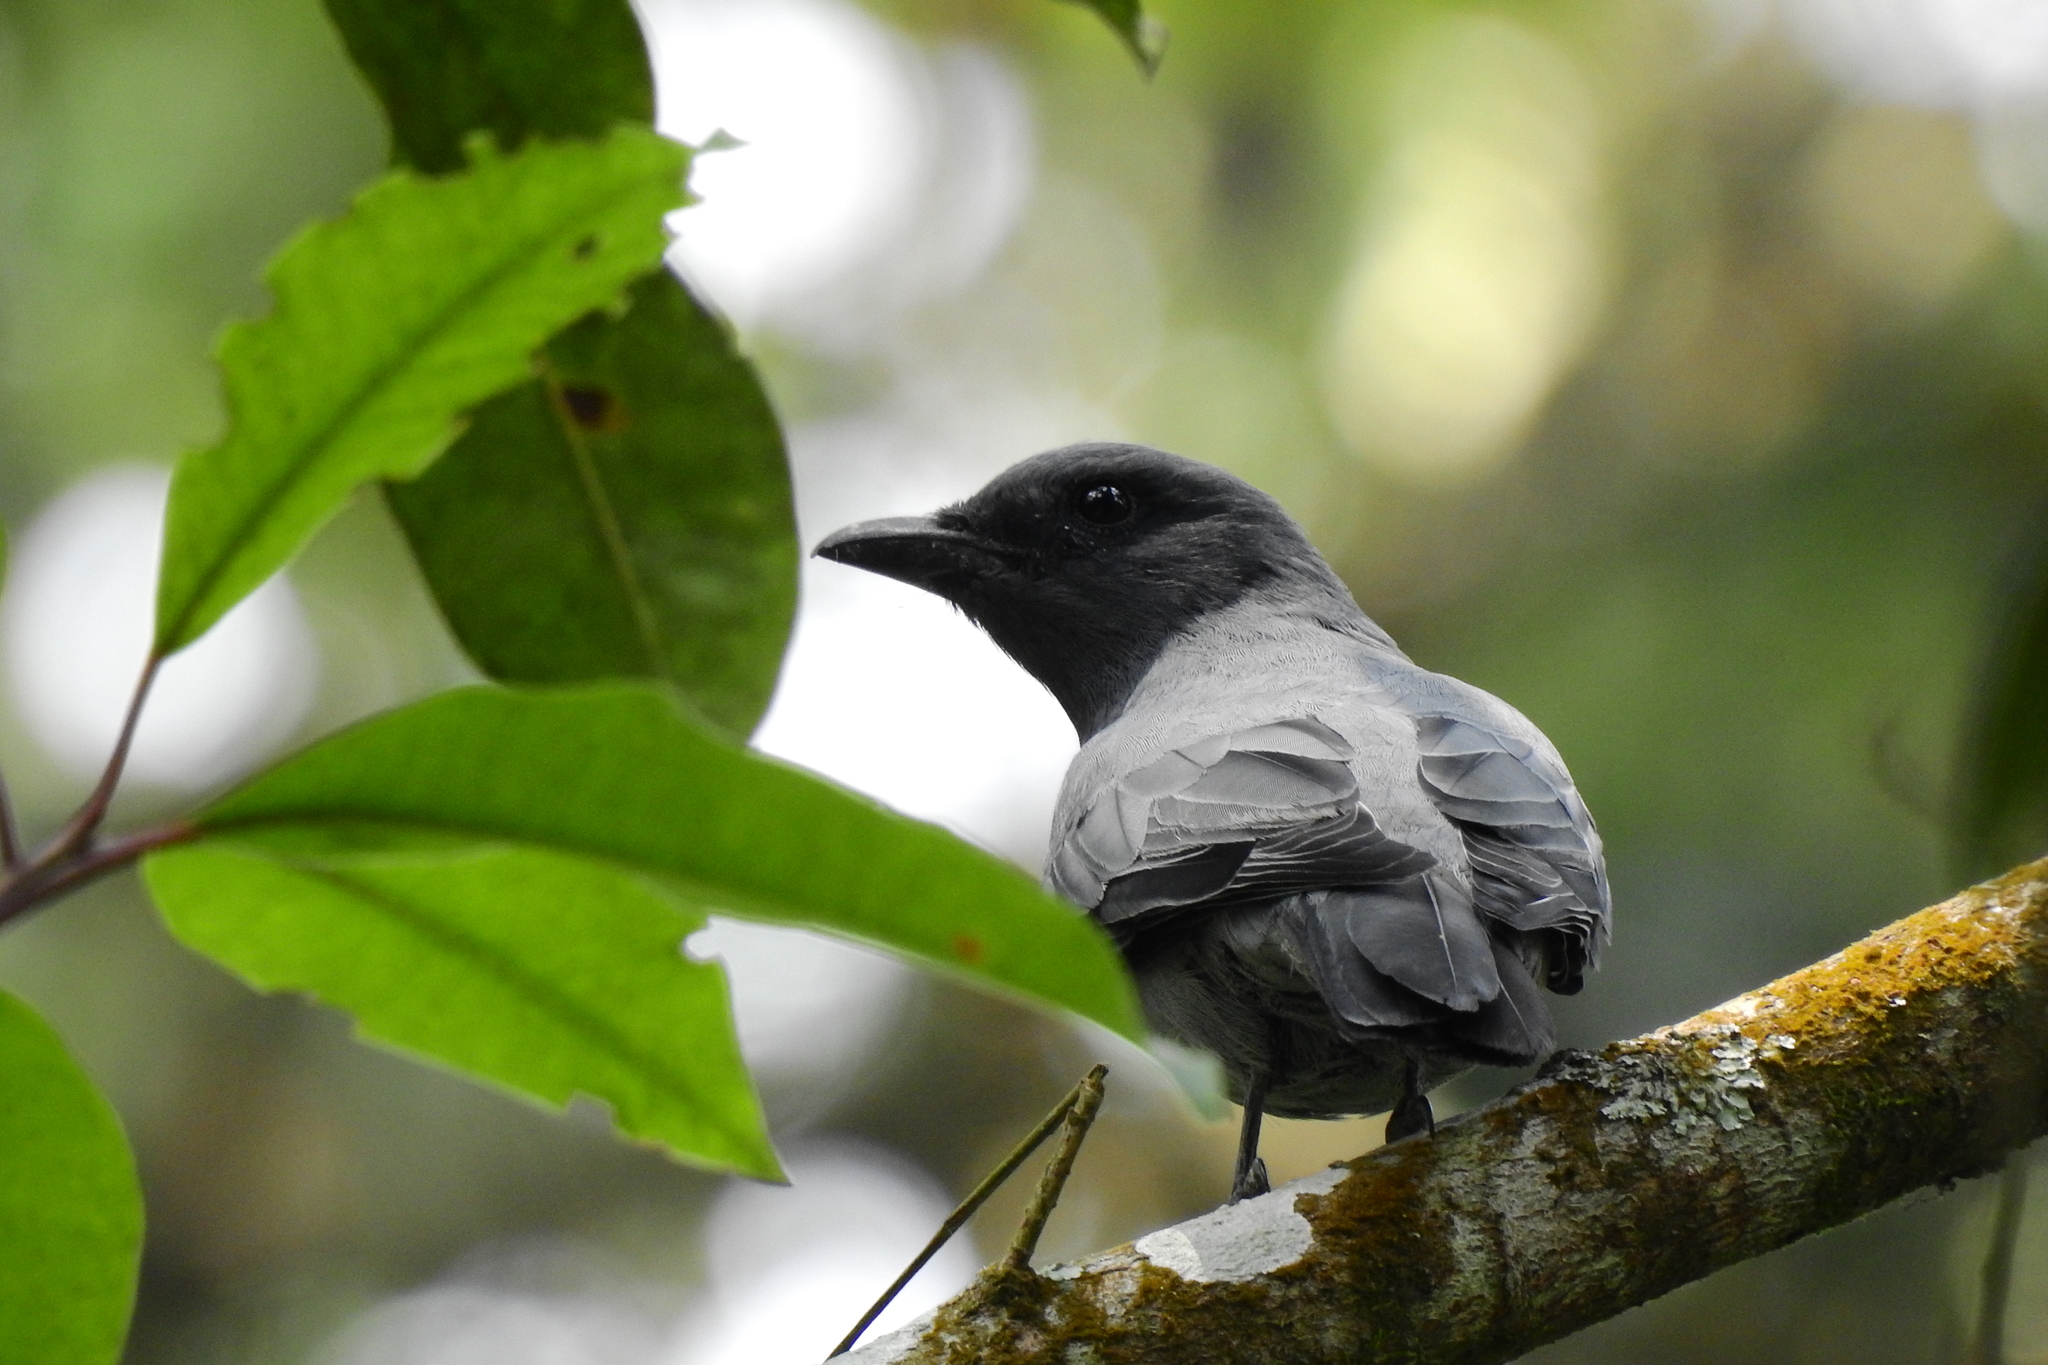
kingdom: Animalia
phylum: Chordata
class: Aves
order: Passeriformes
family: Campephagidae
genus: Coracina
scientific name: Coracina larvata
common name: Sunda cuckooshrike
